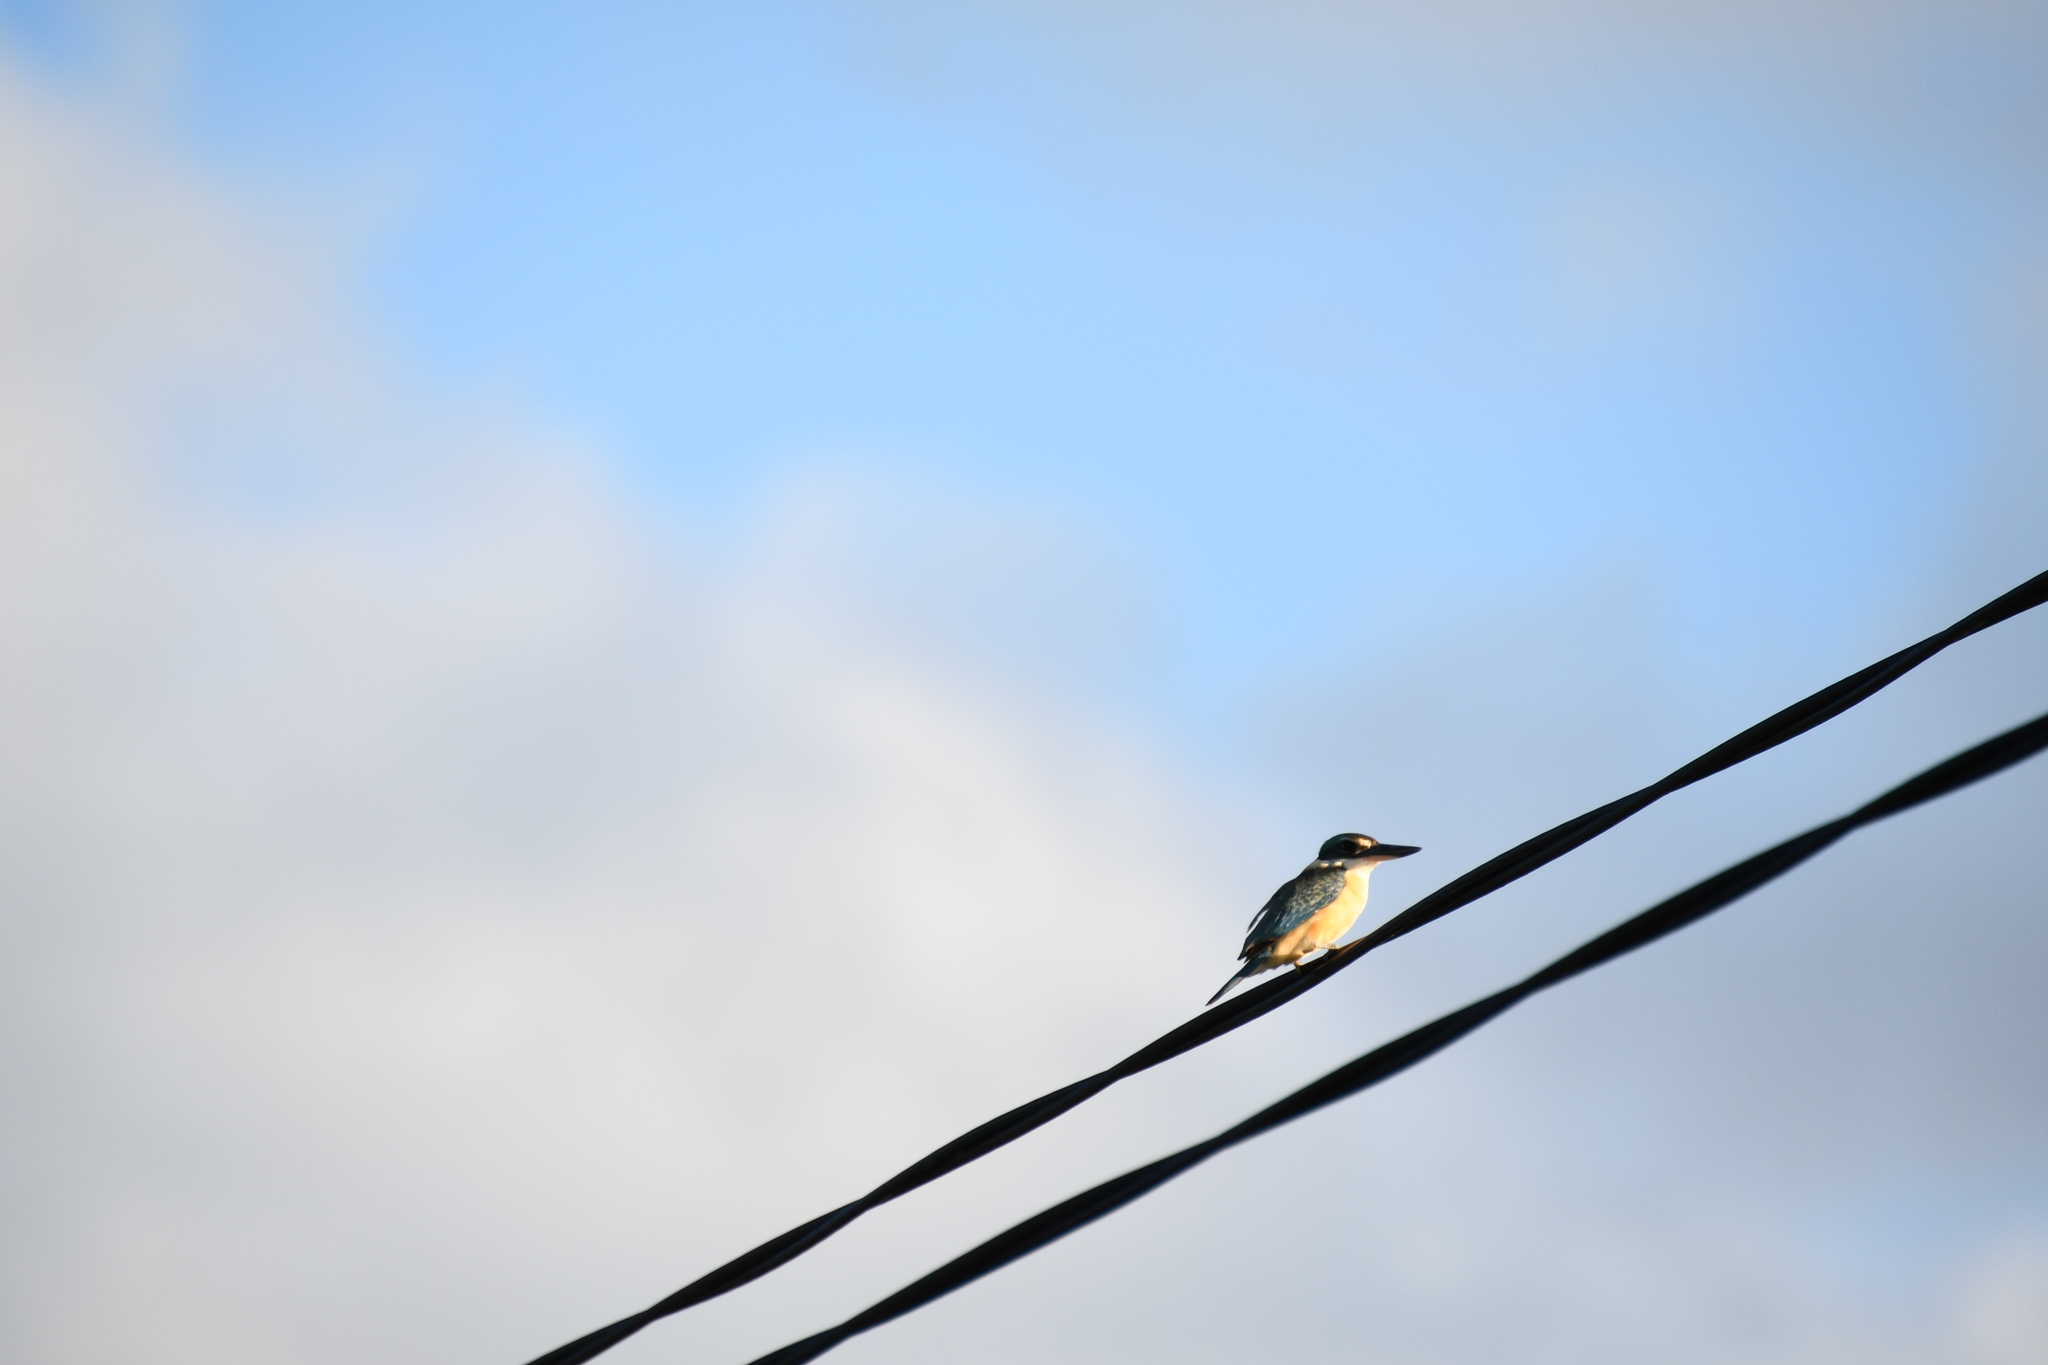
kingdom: Animalia
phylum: Chordata
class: Aves
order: Coraciiformes
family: Alcedinidae
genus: Todiramphus
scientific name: Todiramphus sanctus
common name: Sacred kingfisher
